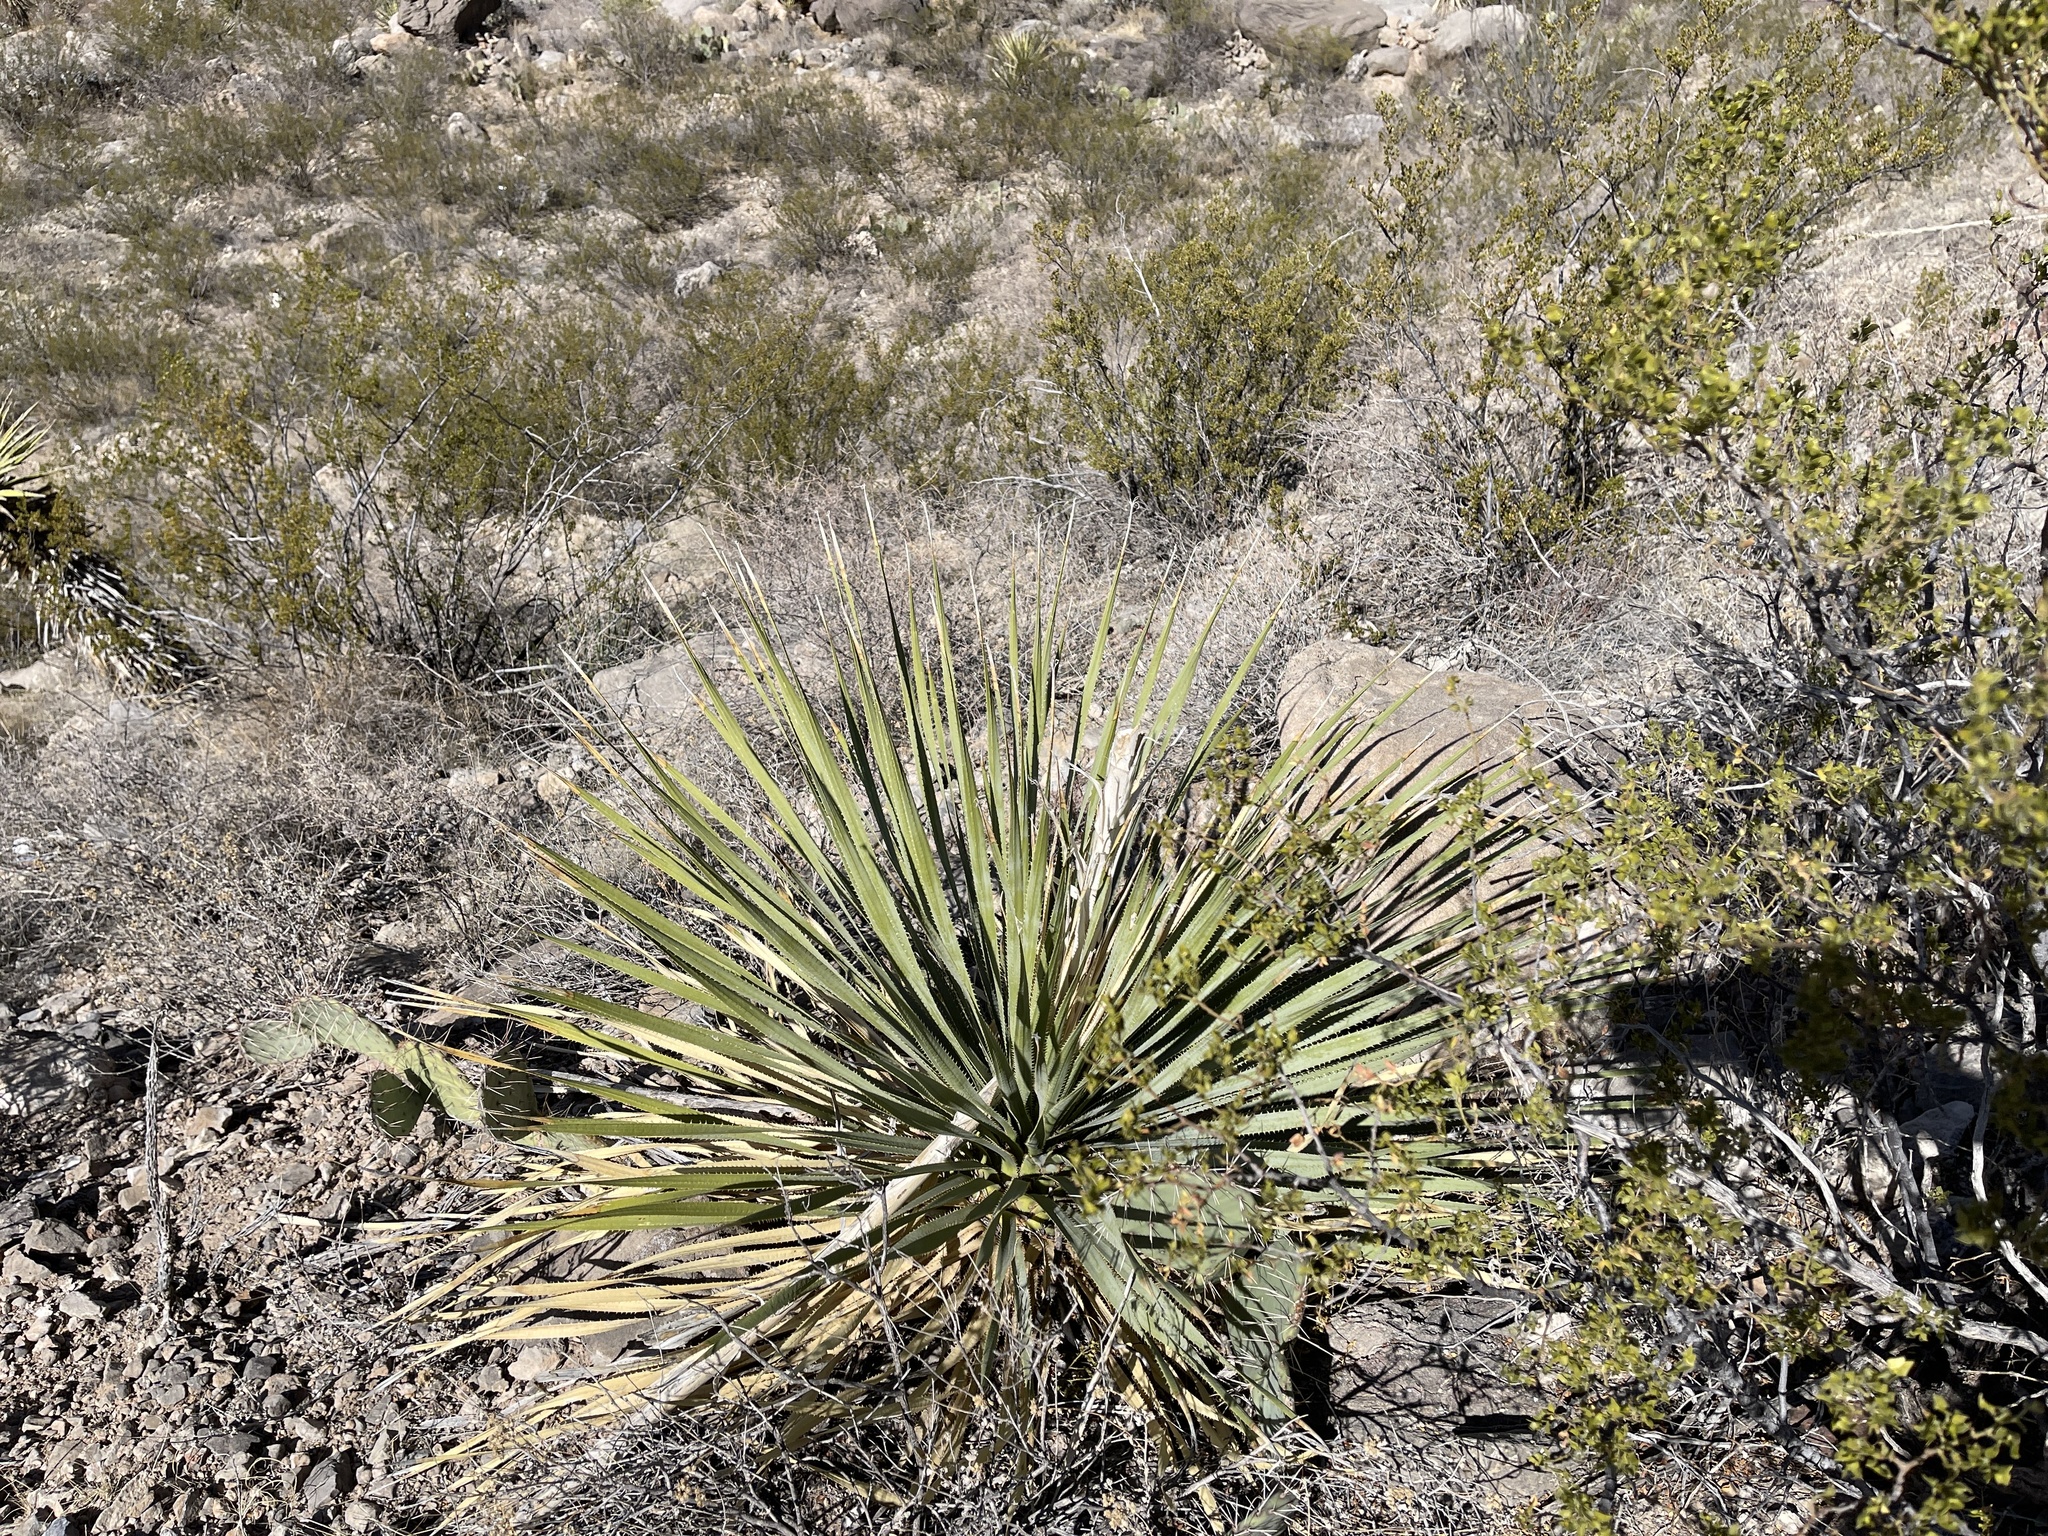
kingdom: Plantae
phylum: Tracheophyta
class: Liliopsida
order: Asparagales
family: Asparagaceae
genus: Dasylirion
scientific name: Dasylirion wheeleri
